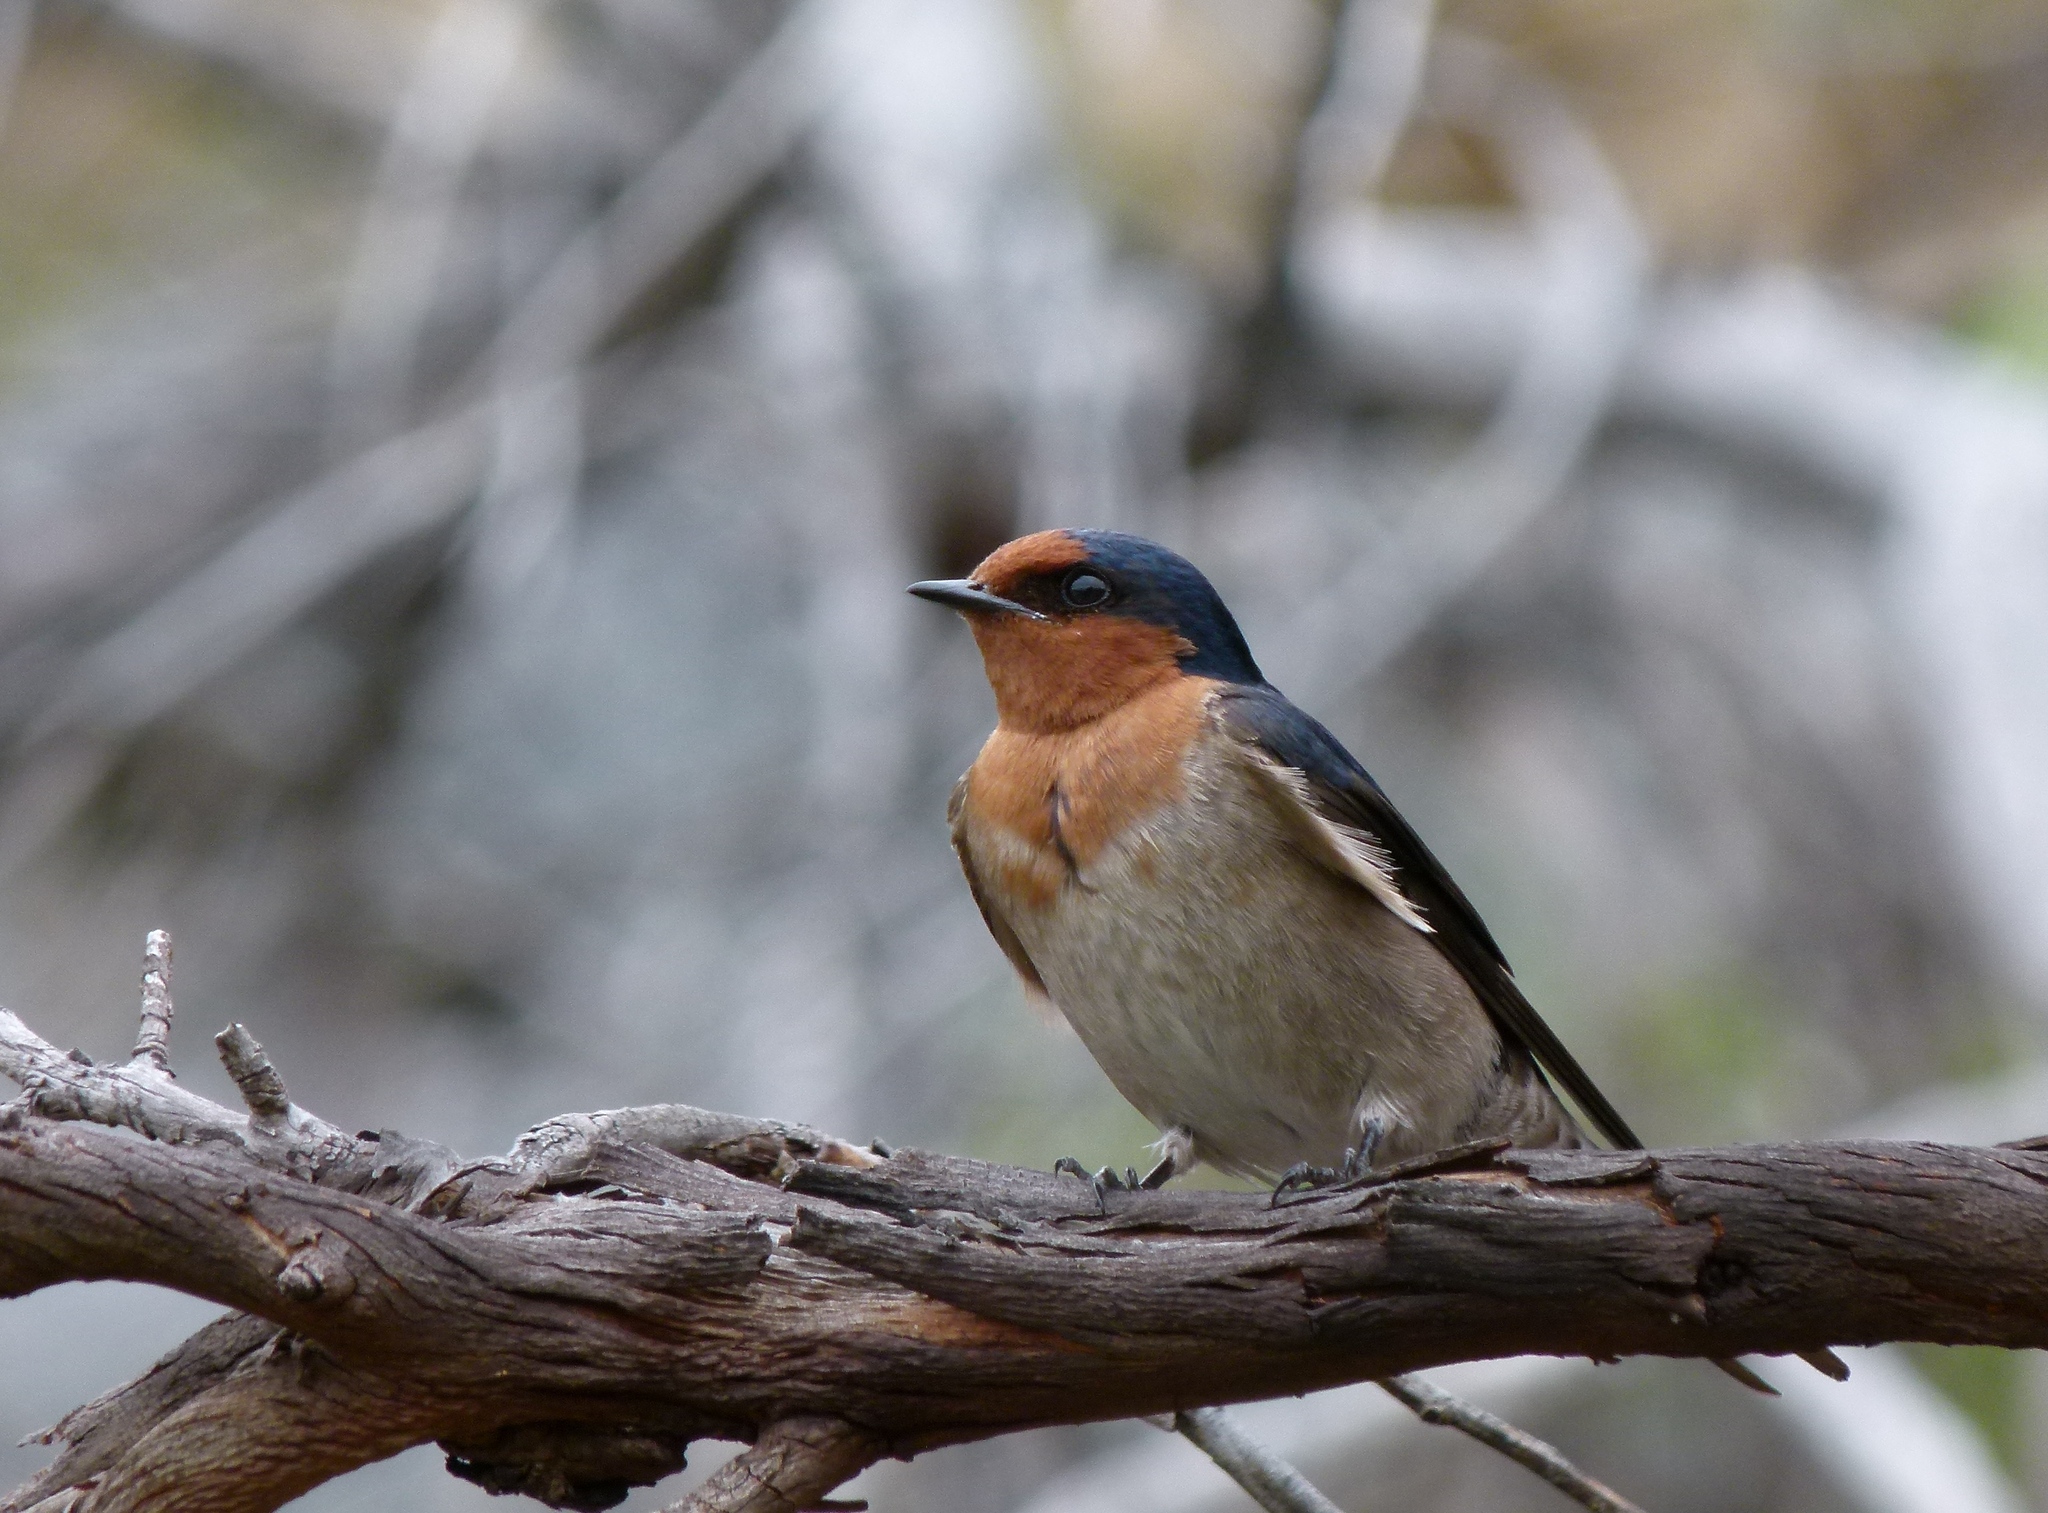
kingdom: Animalia
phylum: Chordata
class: Aves
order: Passeriformes
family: Hirundinidae
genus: Hirundo
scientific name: Hirundo neoxena
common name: Welcome swallow
